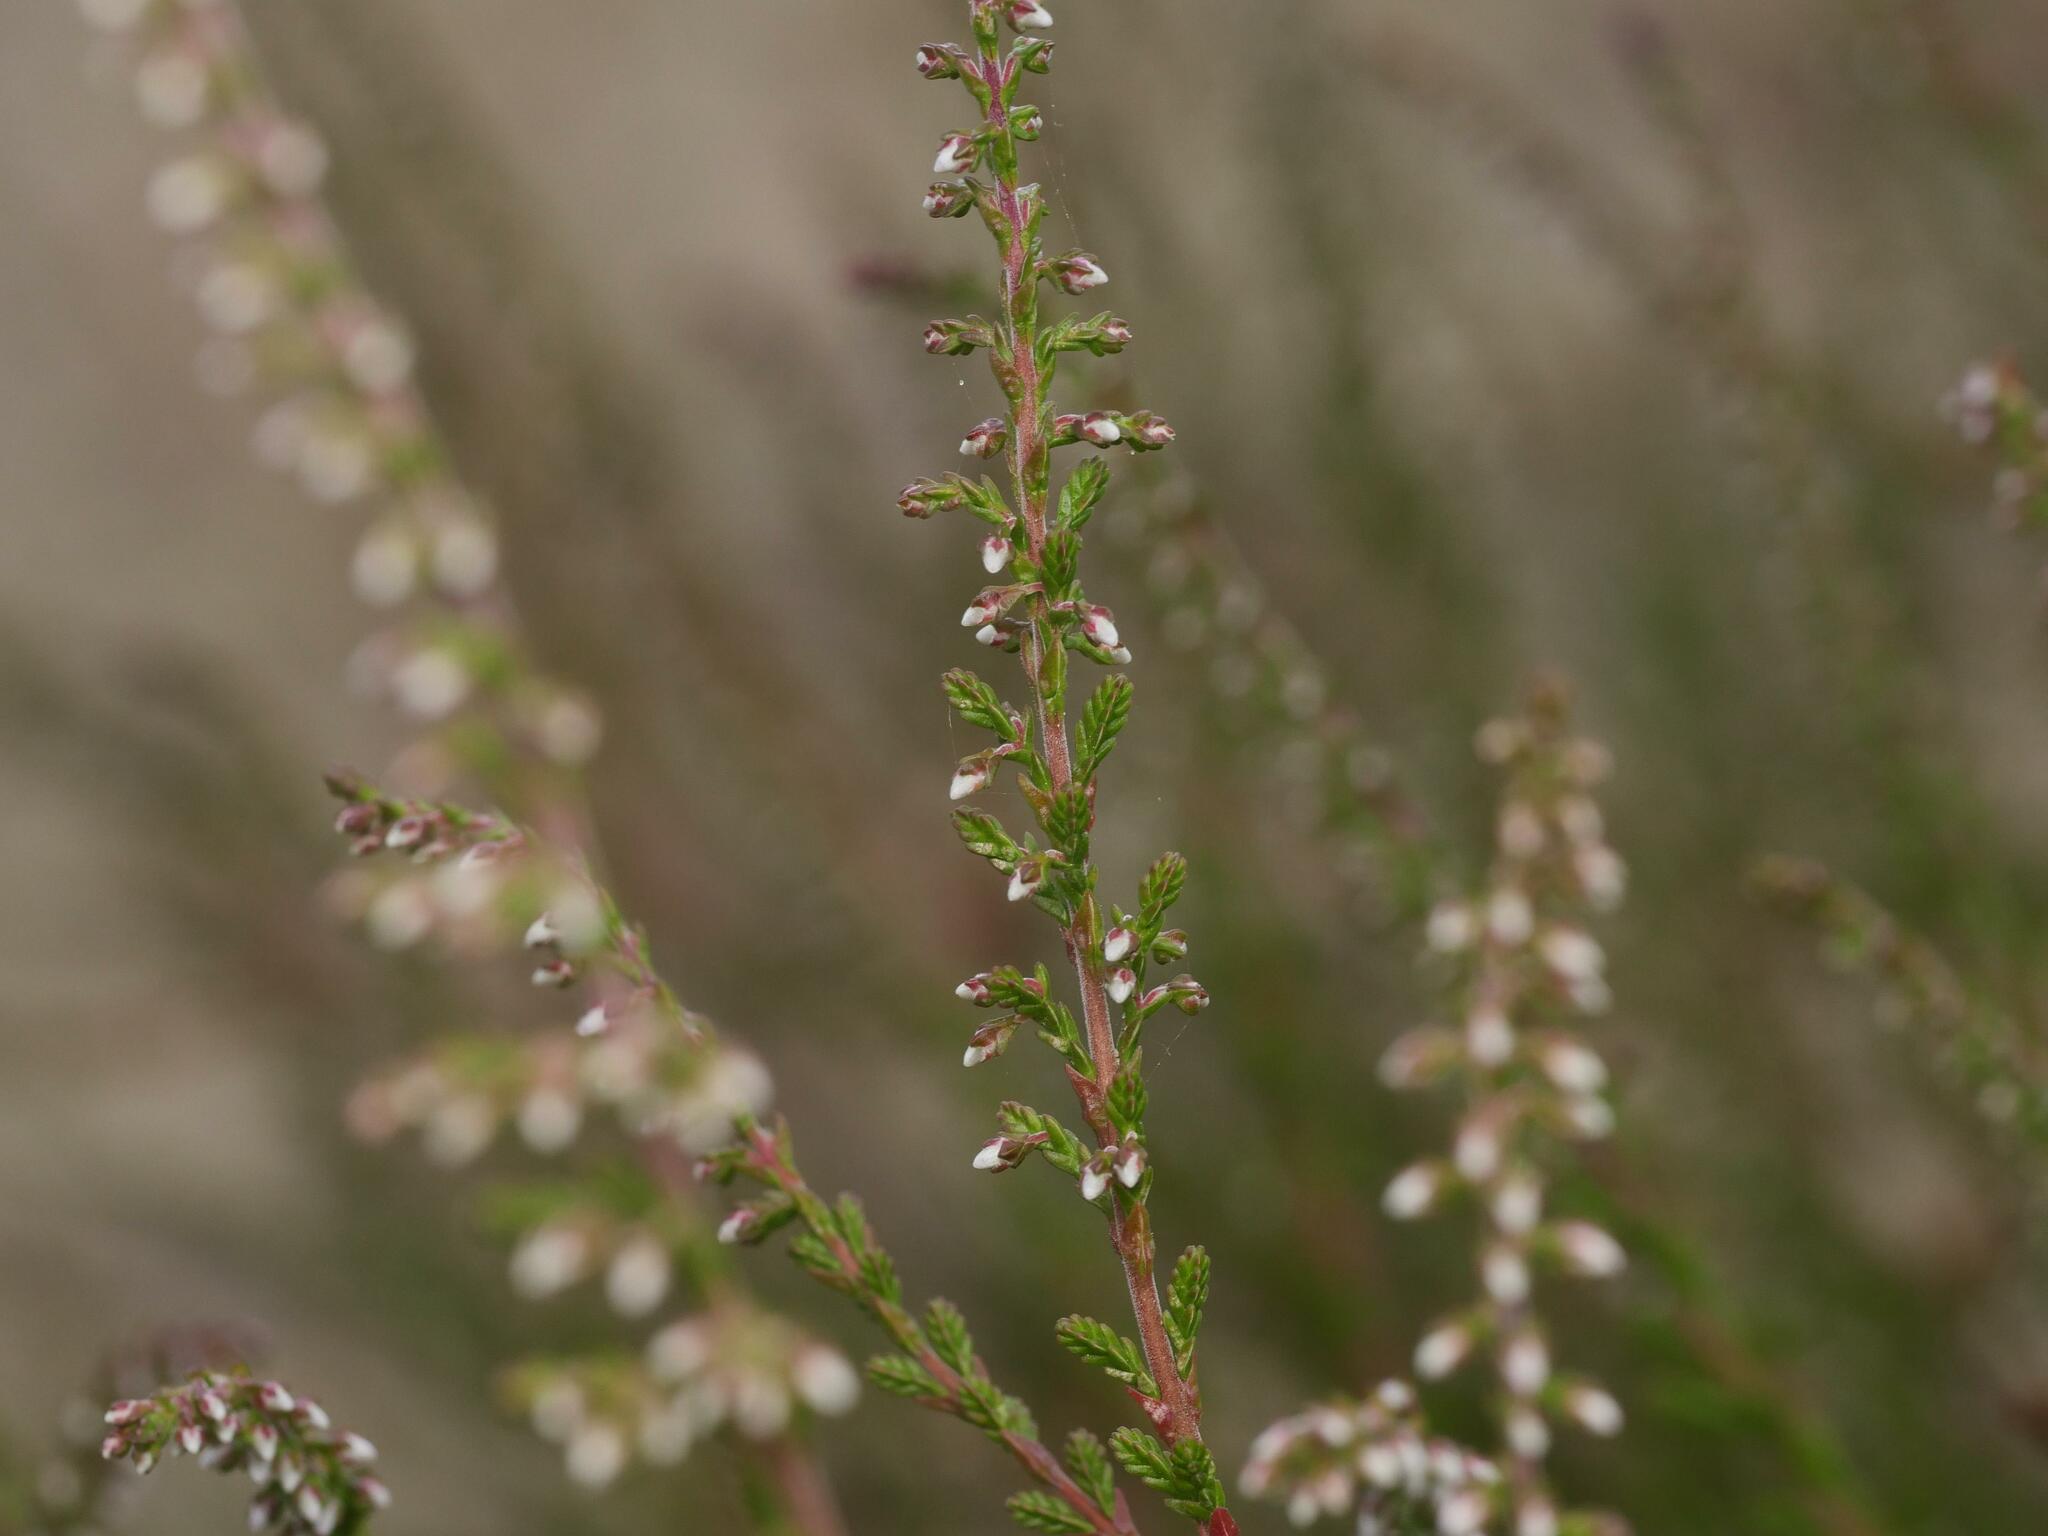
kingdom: Plantae
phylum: Tracheophyta
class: Magnoliopsida
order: Ericales
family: Ericaceae
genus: Calluna
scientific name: Calluna vulgaris
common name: Heather
